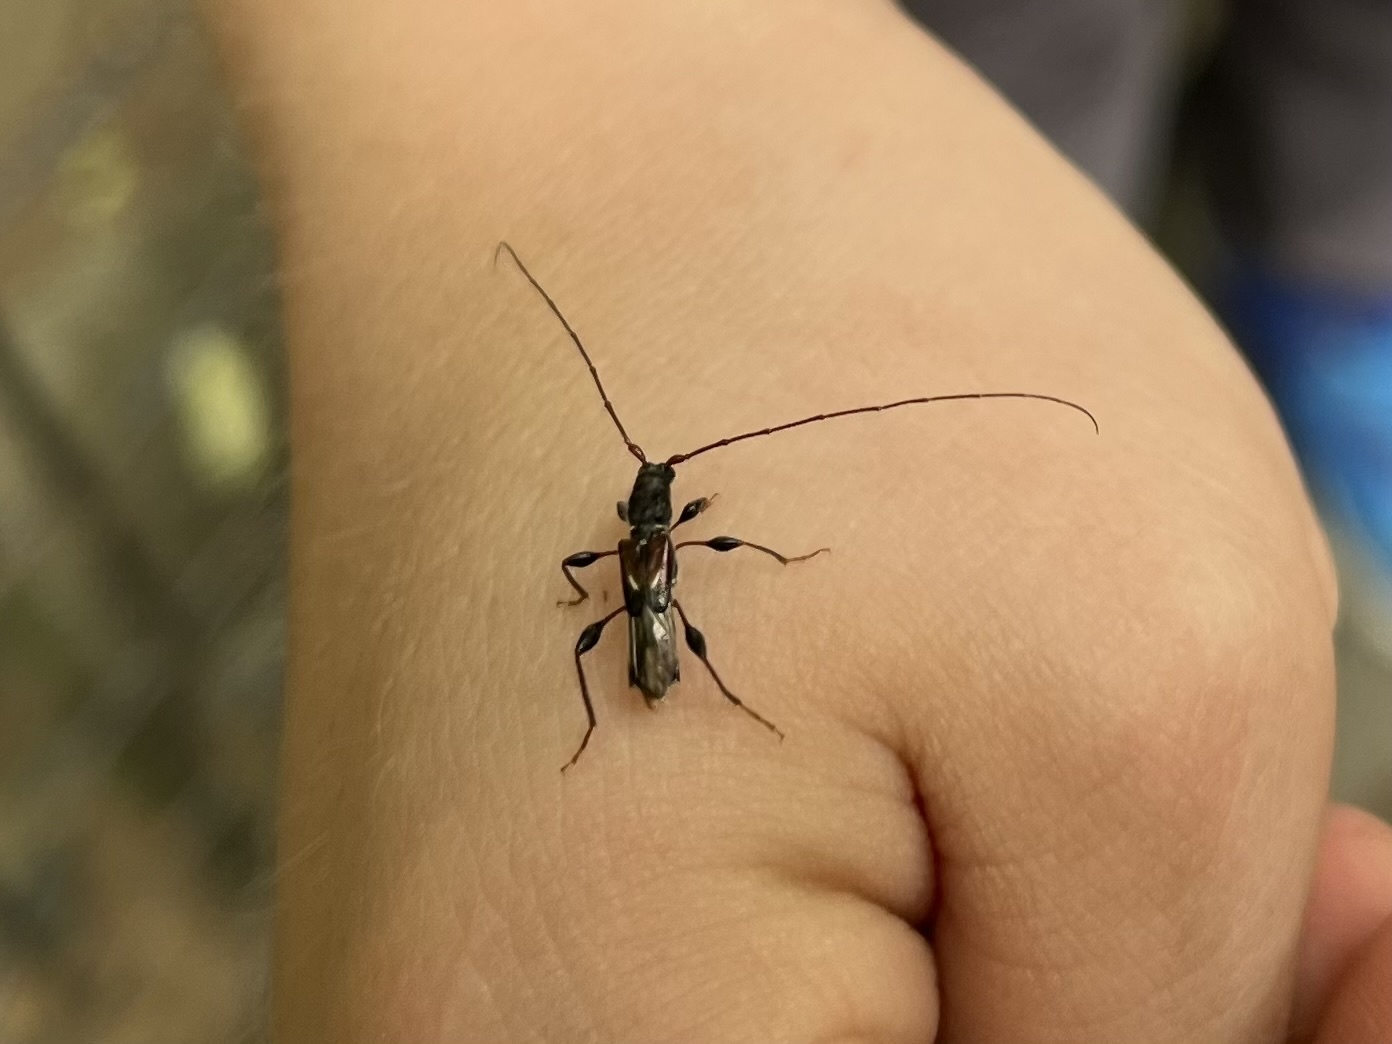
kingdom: Animalia
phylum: Arthropoda
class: Insecta
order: Coleoptera
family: Cerambycidae
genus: Molorchus
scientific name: Molorchus minor
